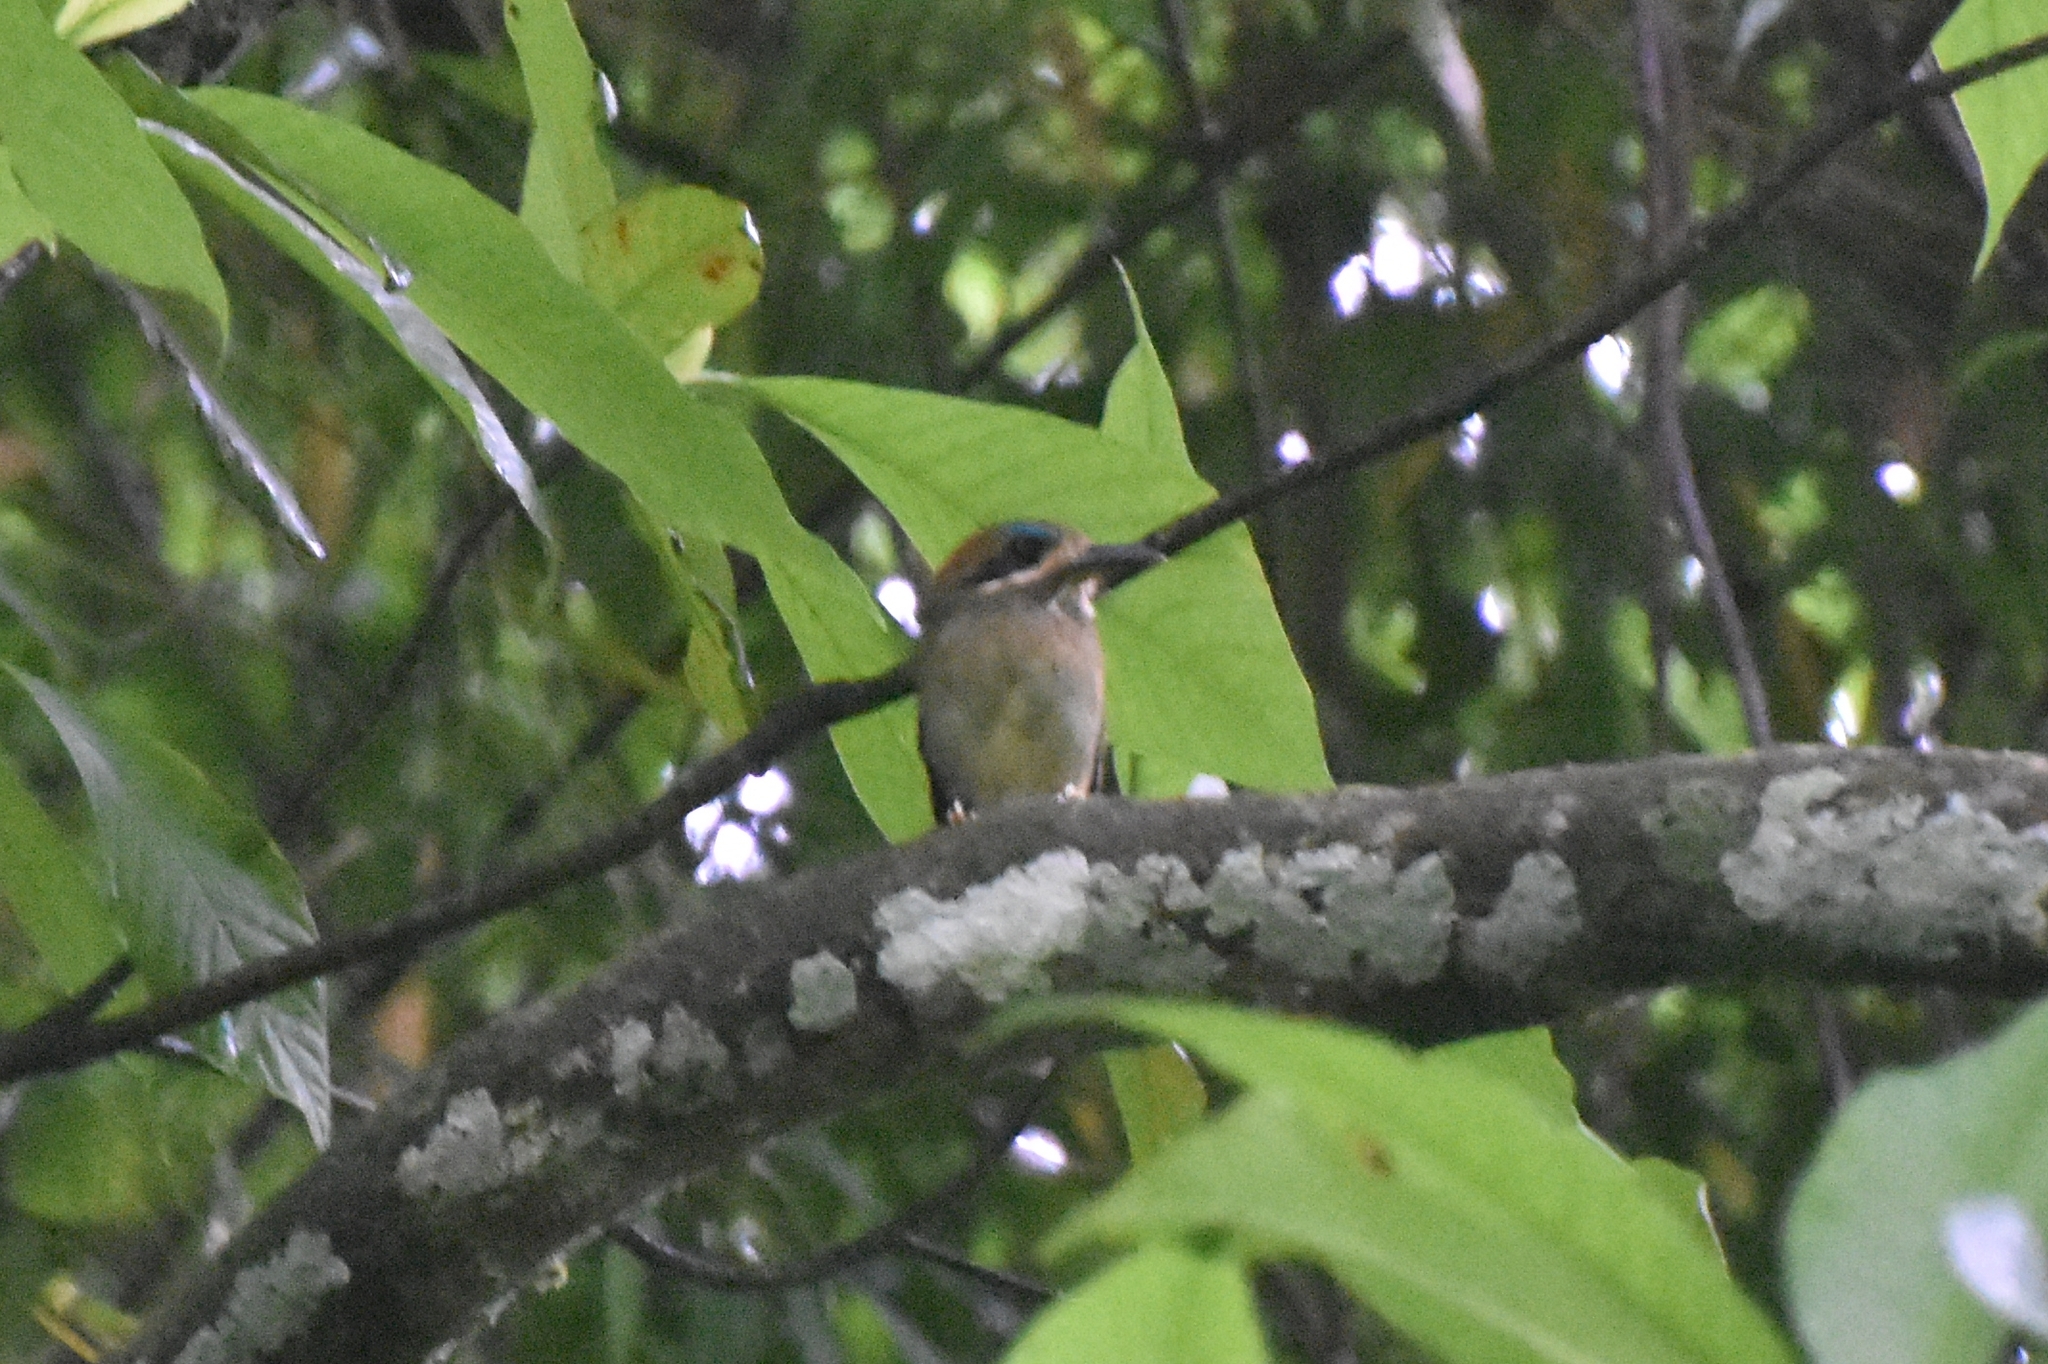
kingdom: Animalia
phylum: Chordata
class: Aves
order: Coraciiformes
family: Momotidae
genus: Hylomanes
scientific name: Hylomanes momotula
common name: Tody motmot
